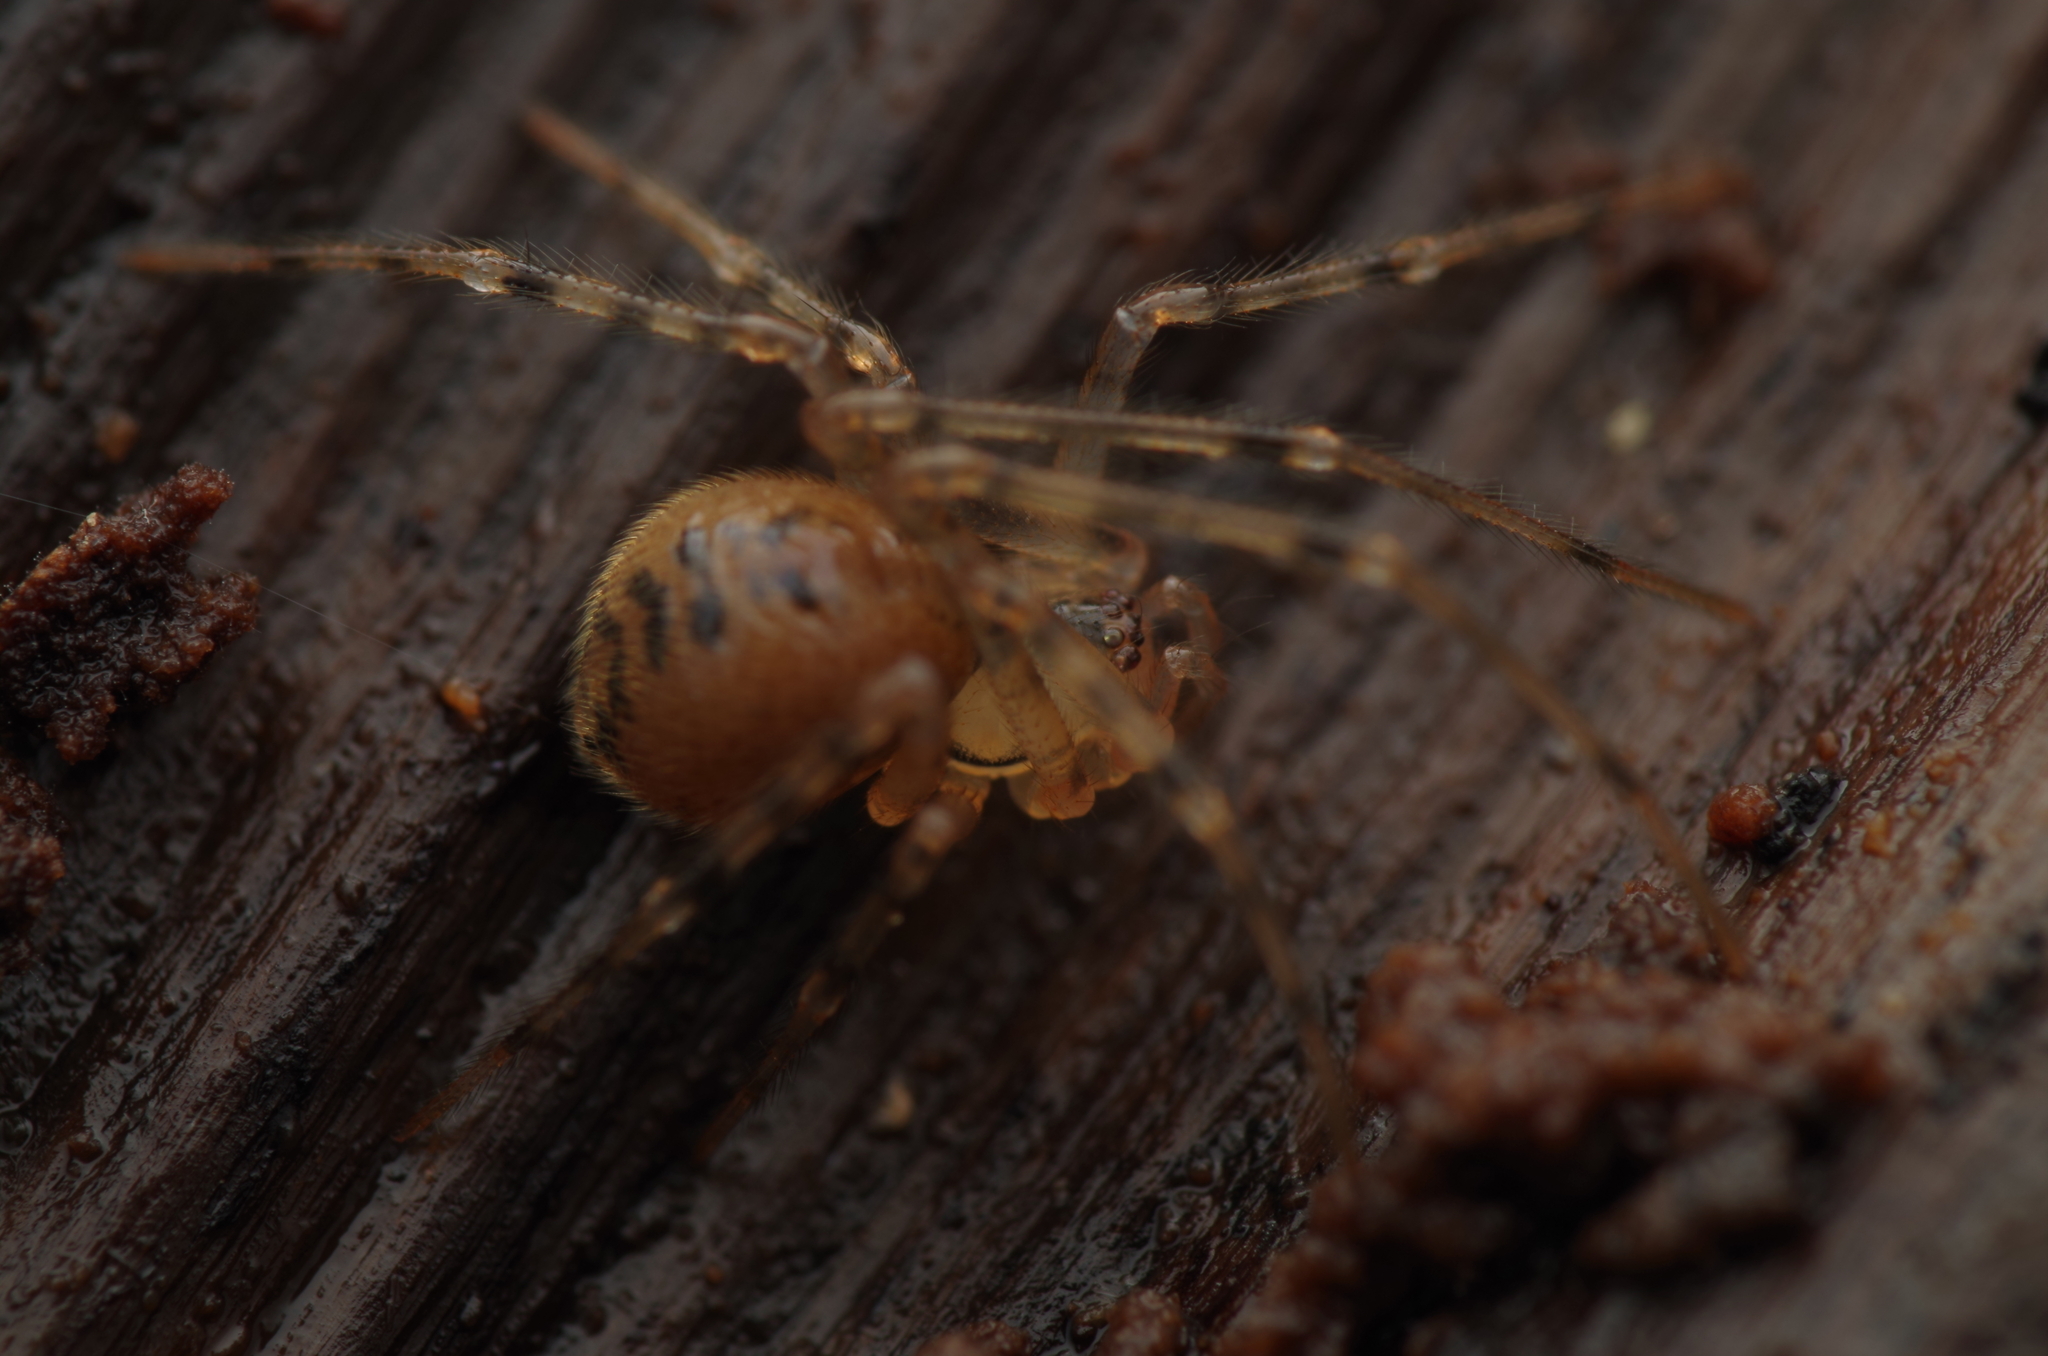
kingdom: Animalia
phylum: Arthropoda
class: Arachnida
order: Araneae
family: Nesticidae
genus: Nesticus
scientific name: Nesticus cellulanus
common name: Comb-footed cellar spider
